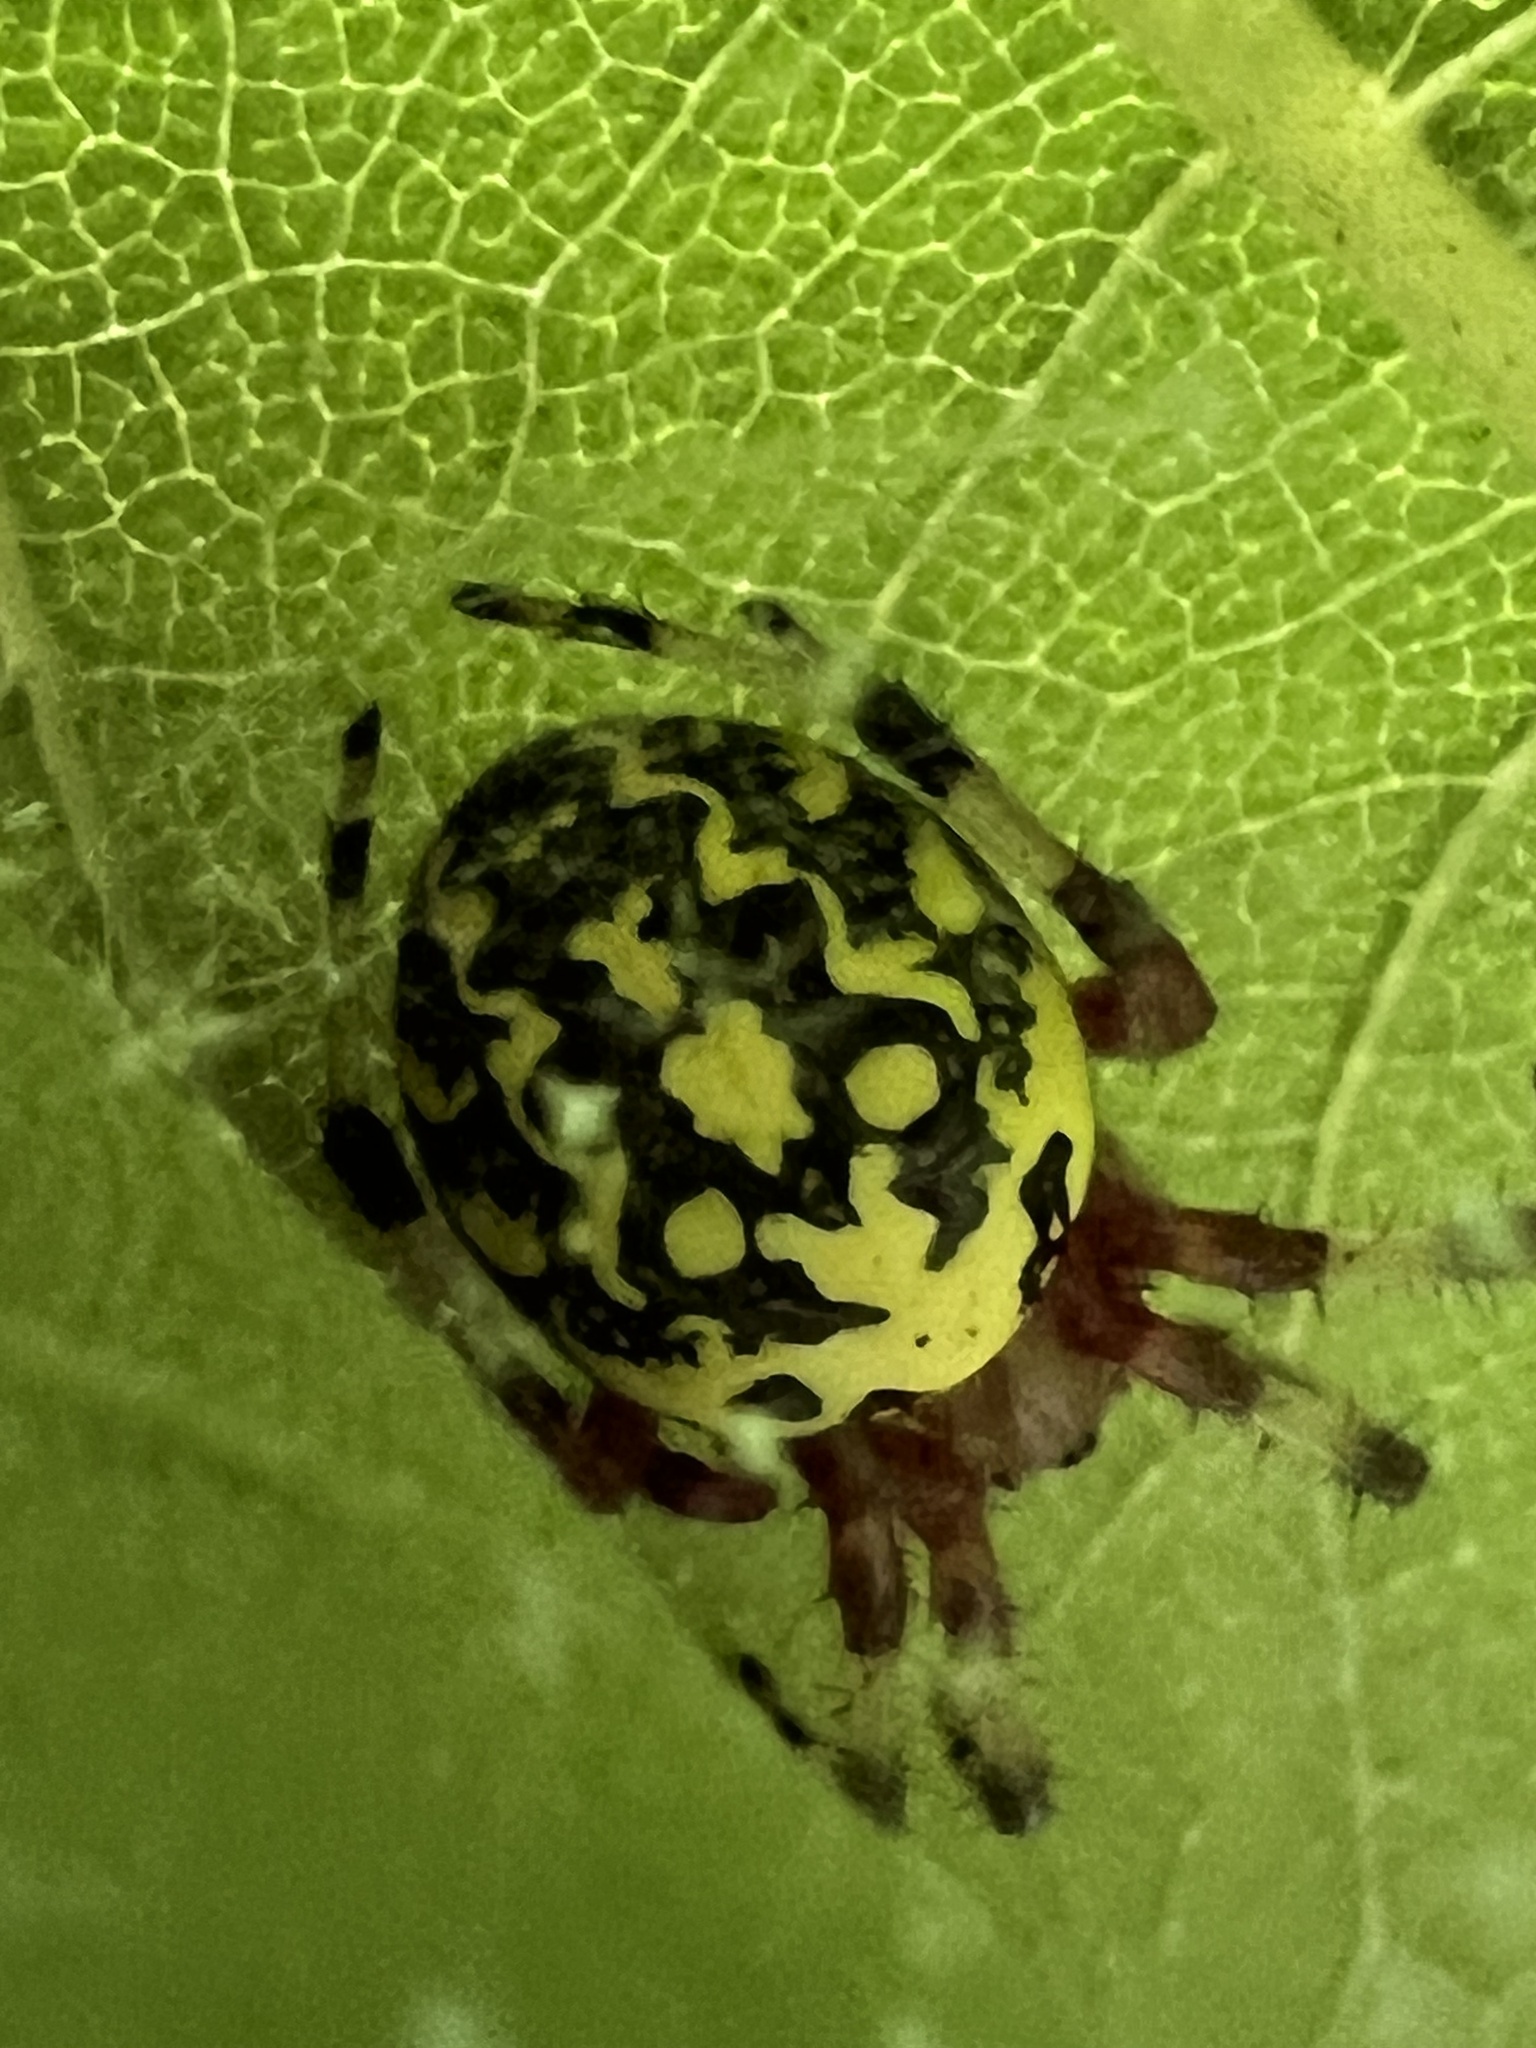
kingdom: Animalia
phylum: Arthropoda
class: Arachnida
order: Araneae
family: Araneidae
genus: Araneus
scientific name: Araneus marmoreus
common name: Marbled orbweaver
